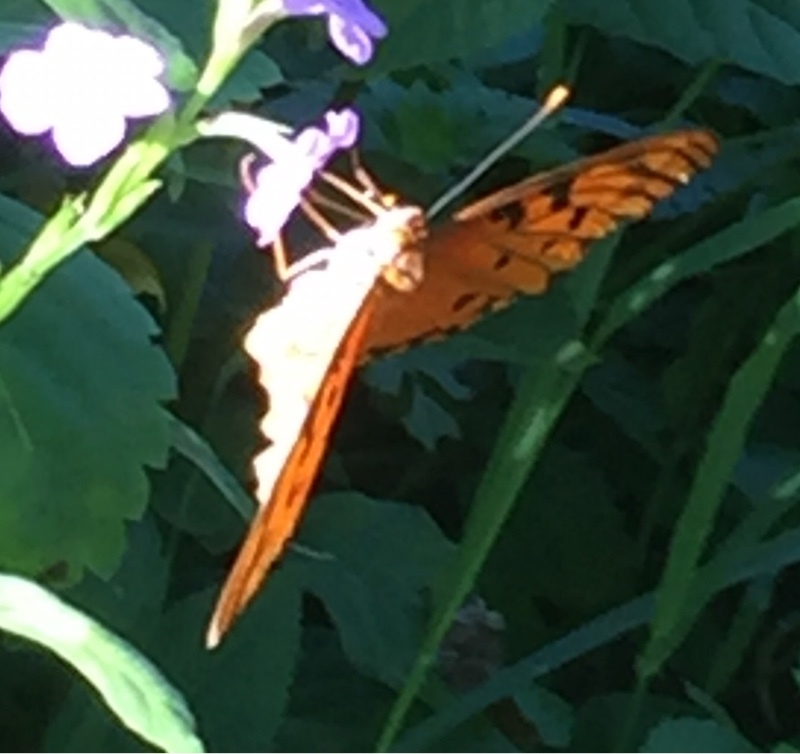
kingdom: Animalia
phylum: Arthropoda
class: Insecta
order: Lepidoptera
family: Nymphalidae
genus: Dione
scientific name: Dione vanillae
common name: Gulf fritillary
